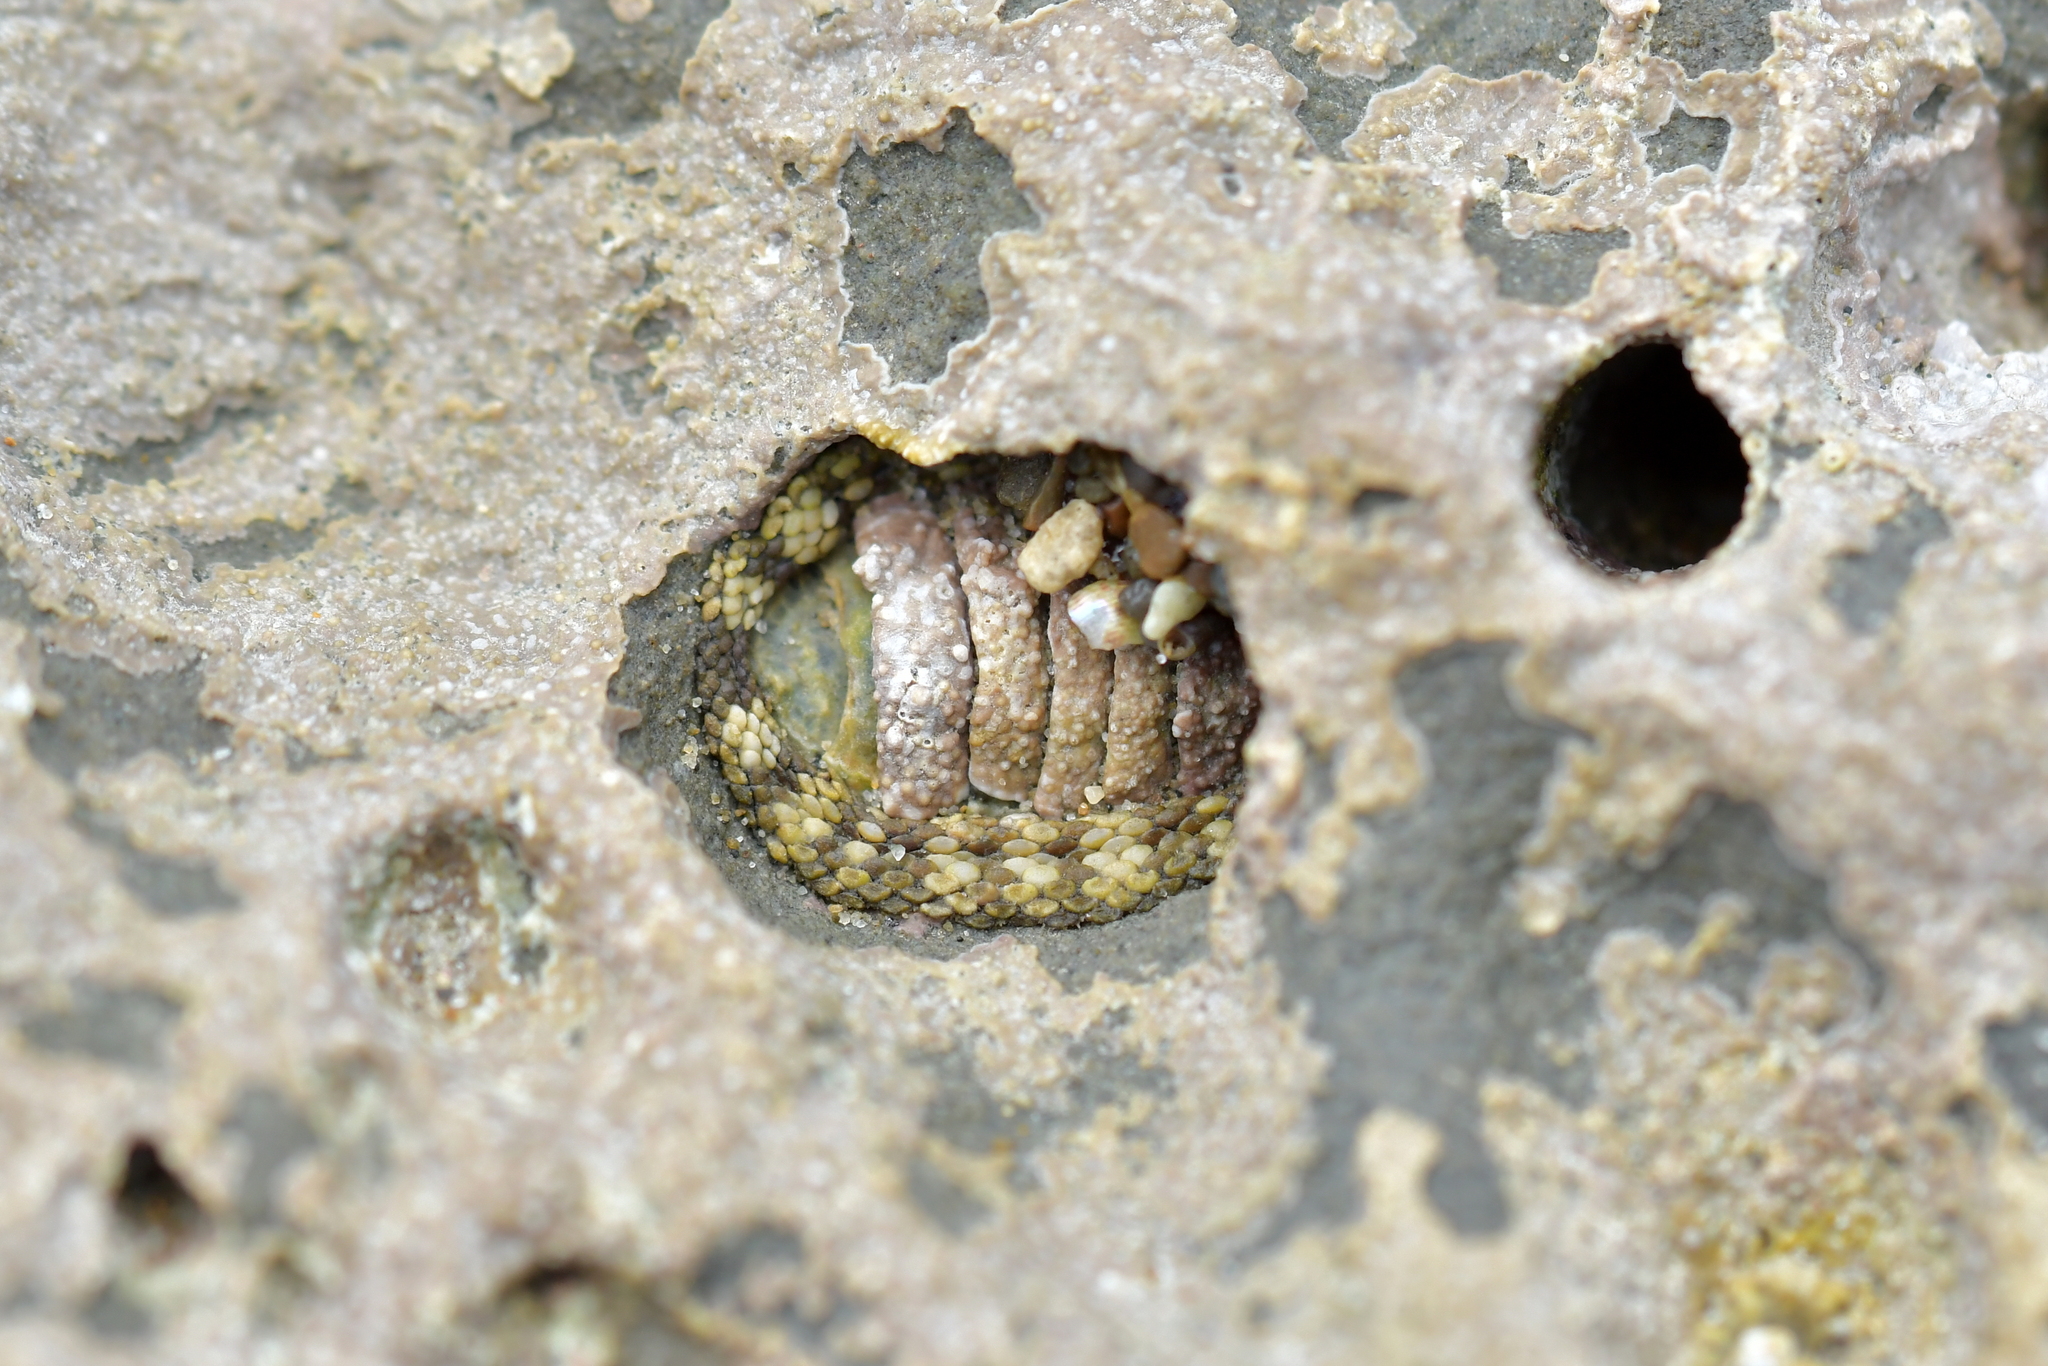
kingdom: Animalia
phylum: Mollusca
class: Polyplacophora
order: Chitonida
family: Chitonidae
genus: Sypharochiton
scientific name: Sypharochiton pelliserpentis
